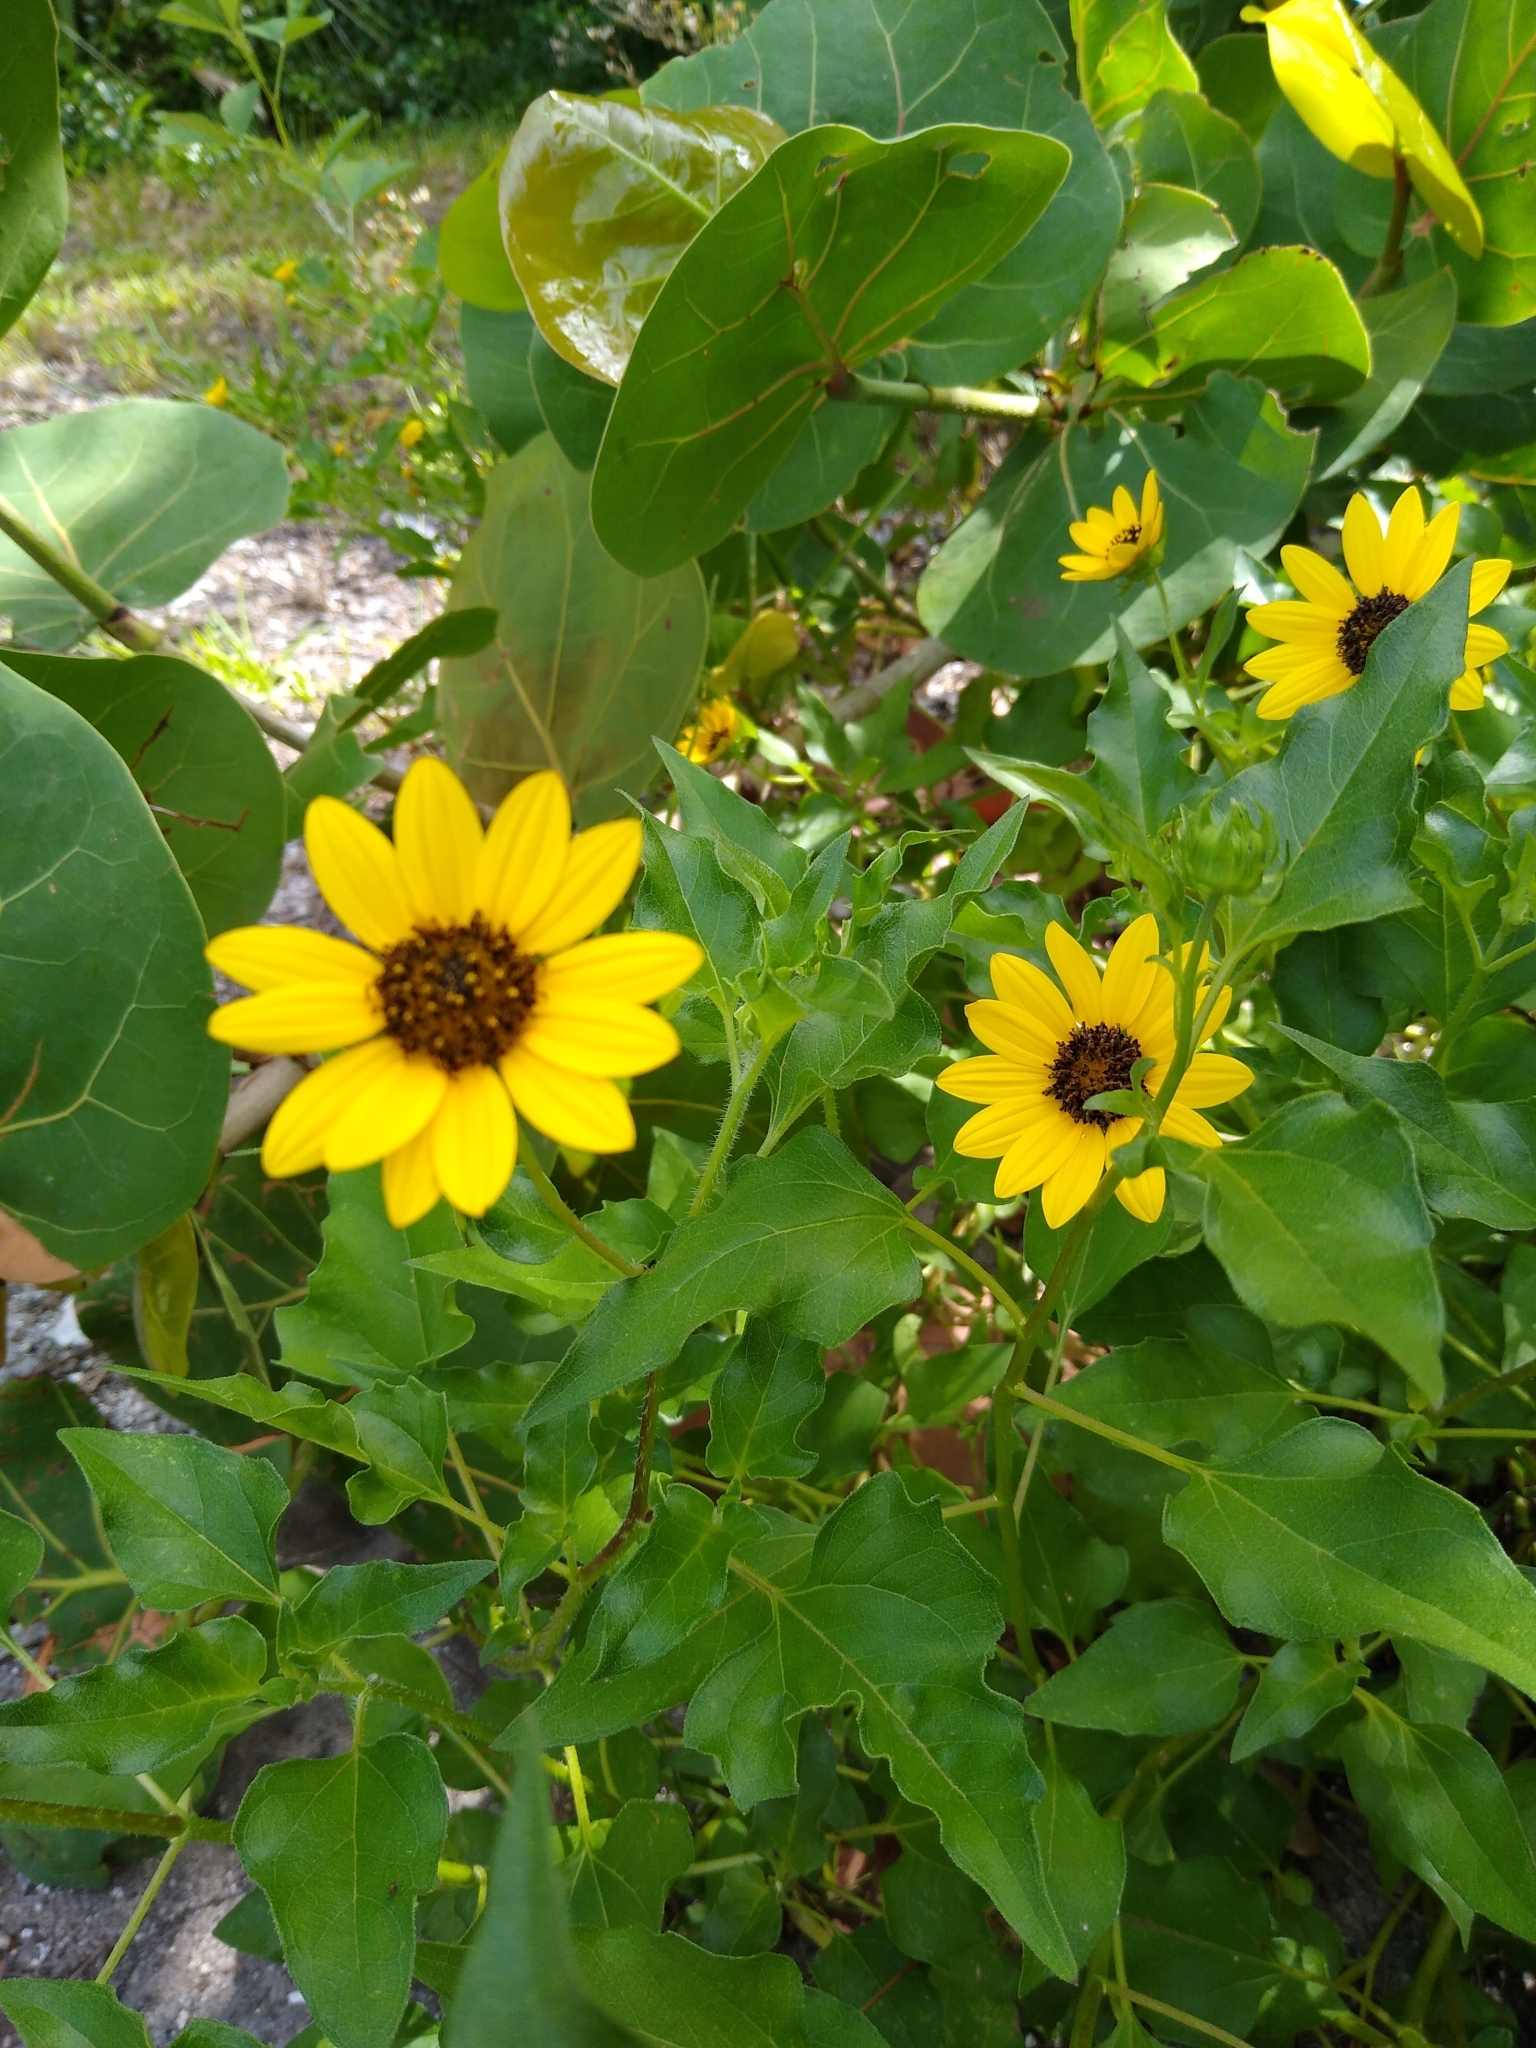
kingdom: Plantae
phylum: Tracheophyta
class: Magnoliopsida
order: Asterales
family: Asteraceae
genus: Helianthus
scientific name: Helianthus debilis
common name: Weak sunflower
